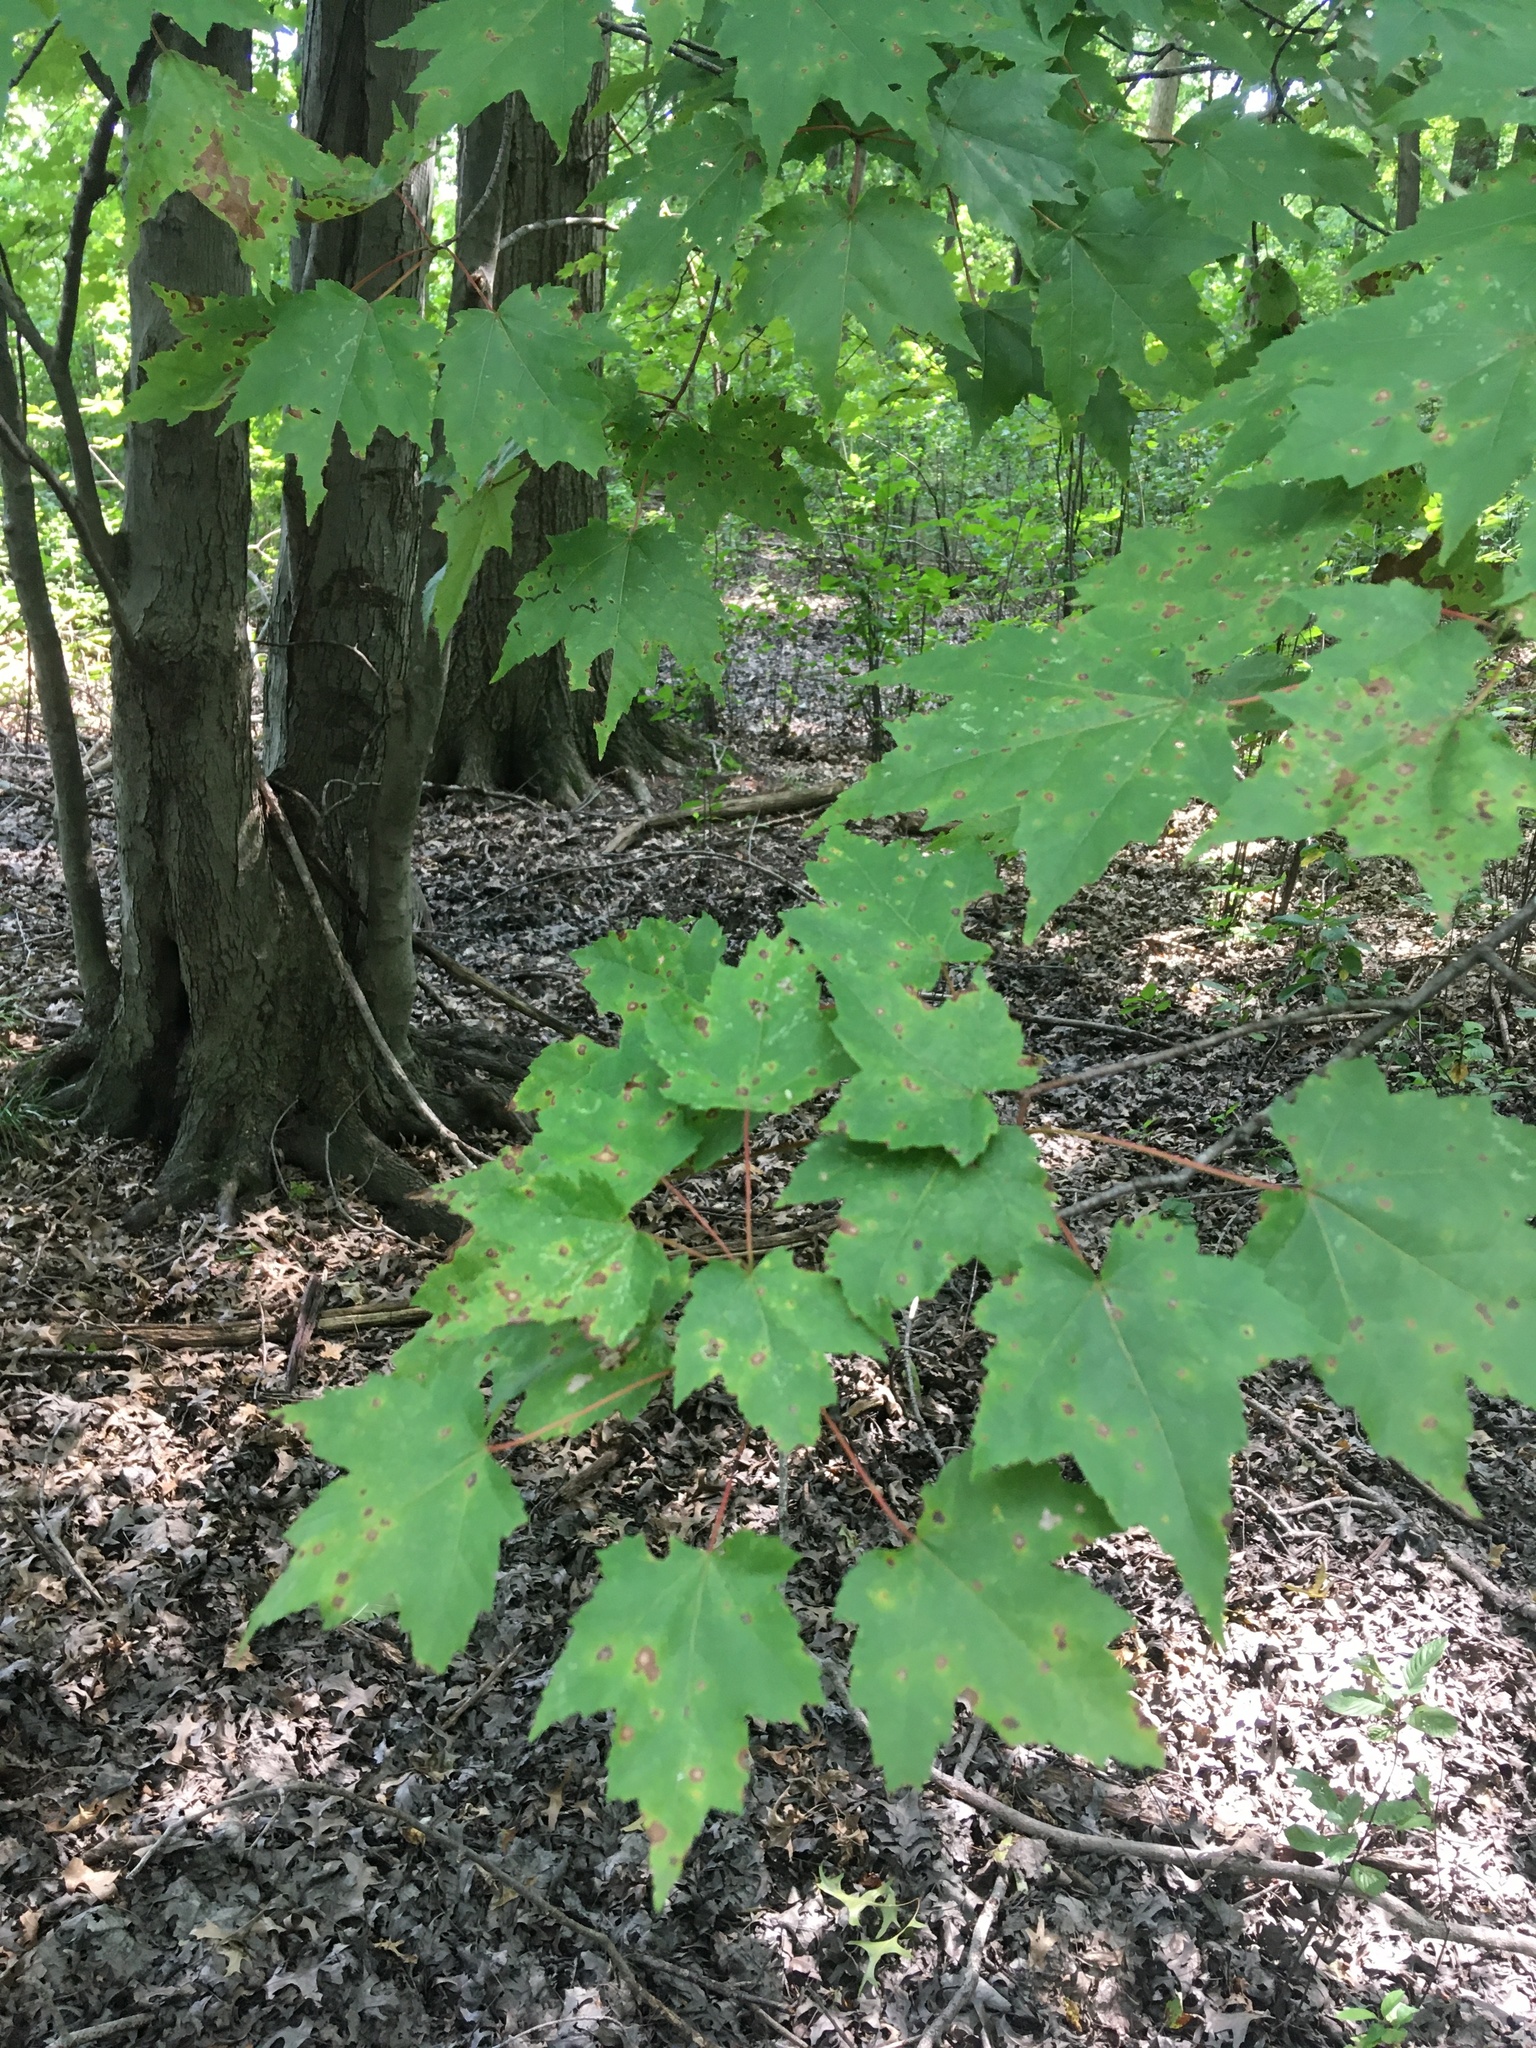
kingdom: Plantae
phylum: Tracheophyta
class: Magnoliopsida
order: Sapindales
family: Sapindaceae
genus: Acer
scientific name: Acer rubrum
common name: Red maple
